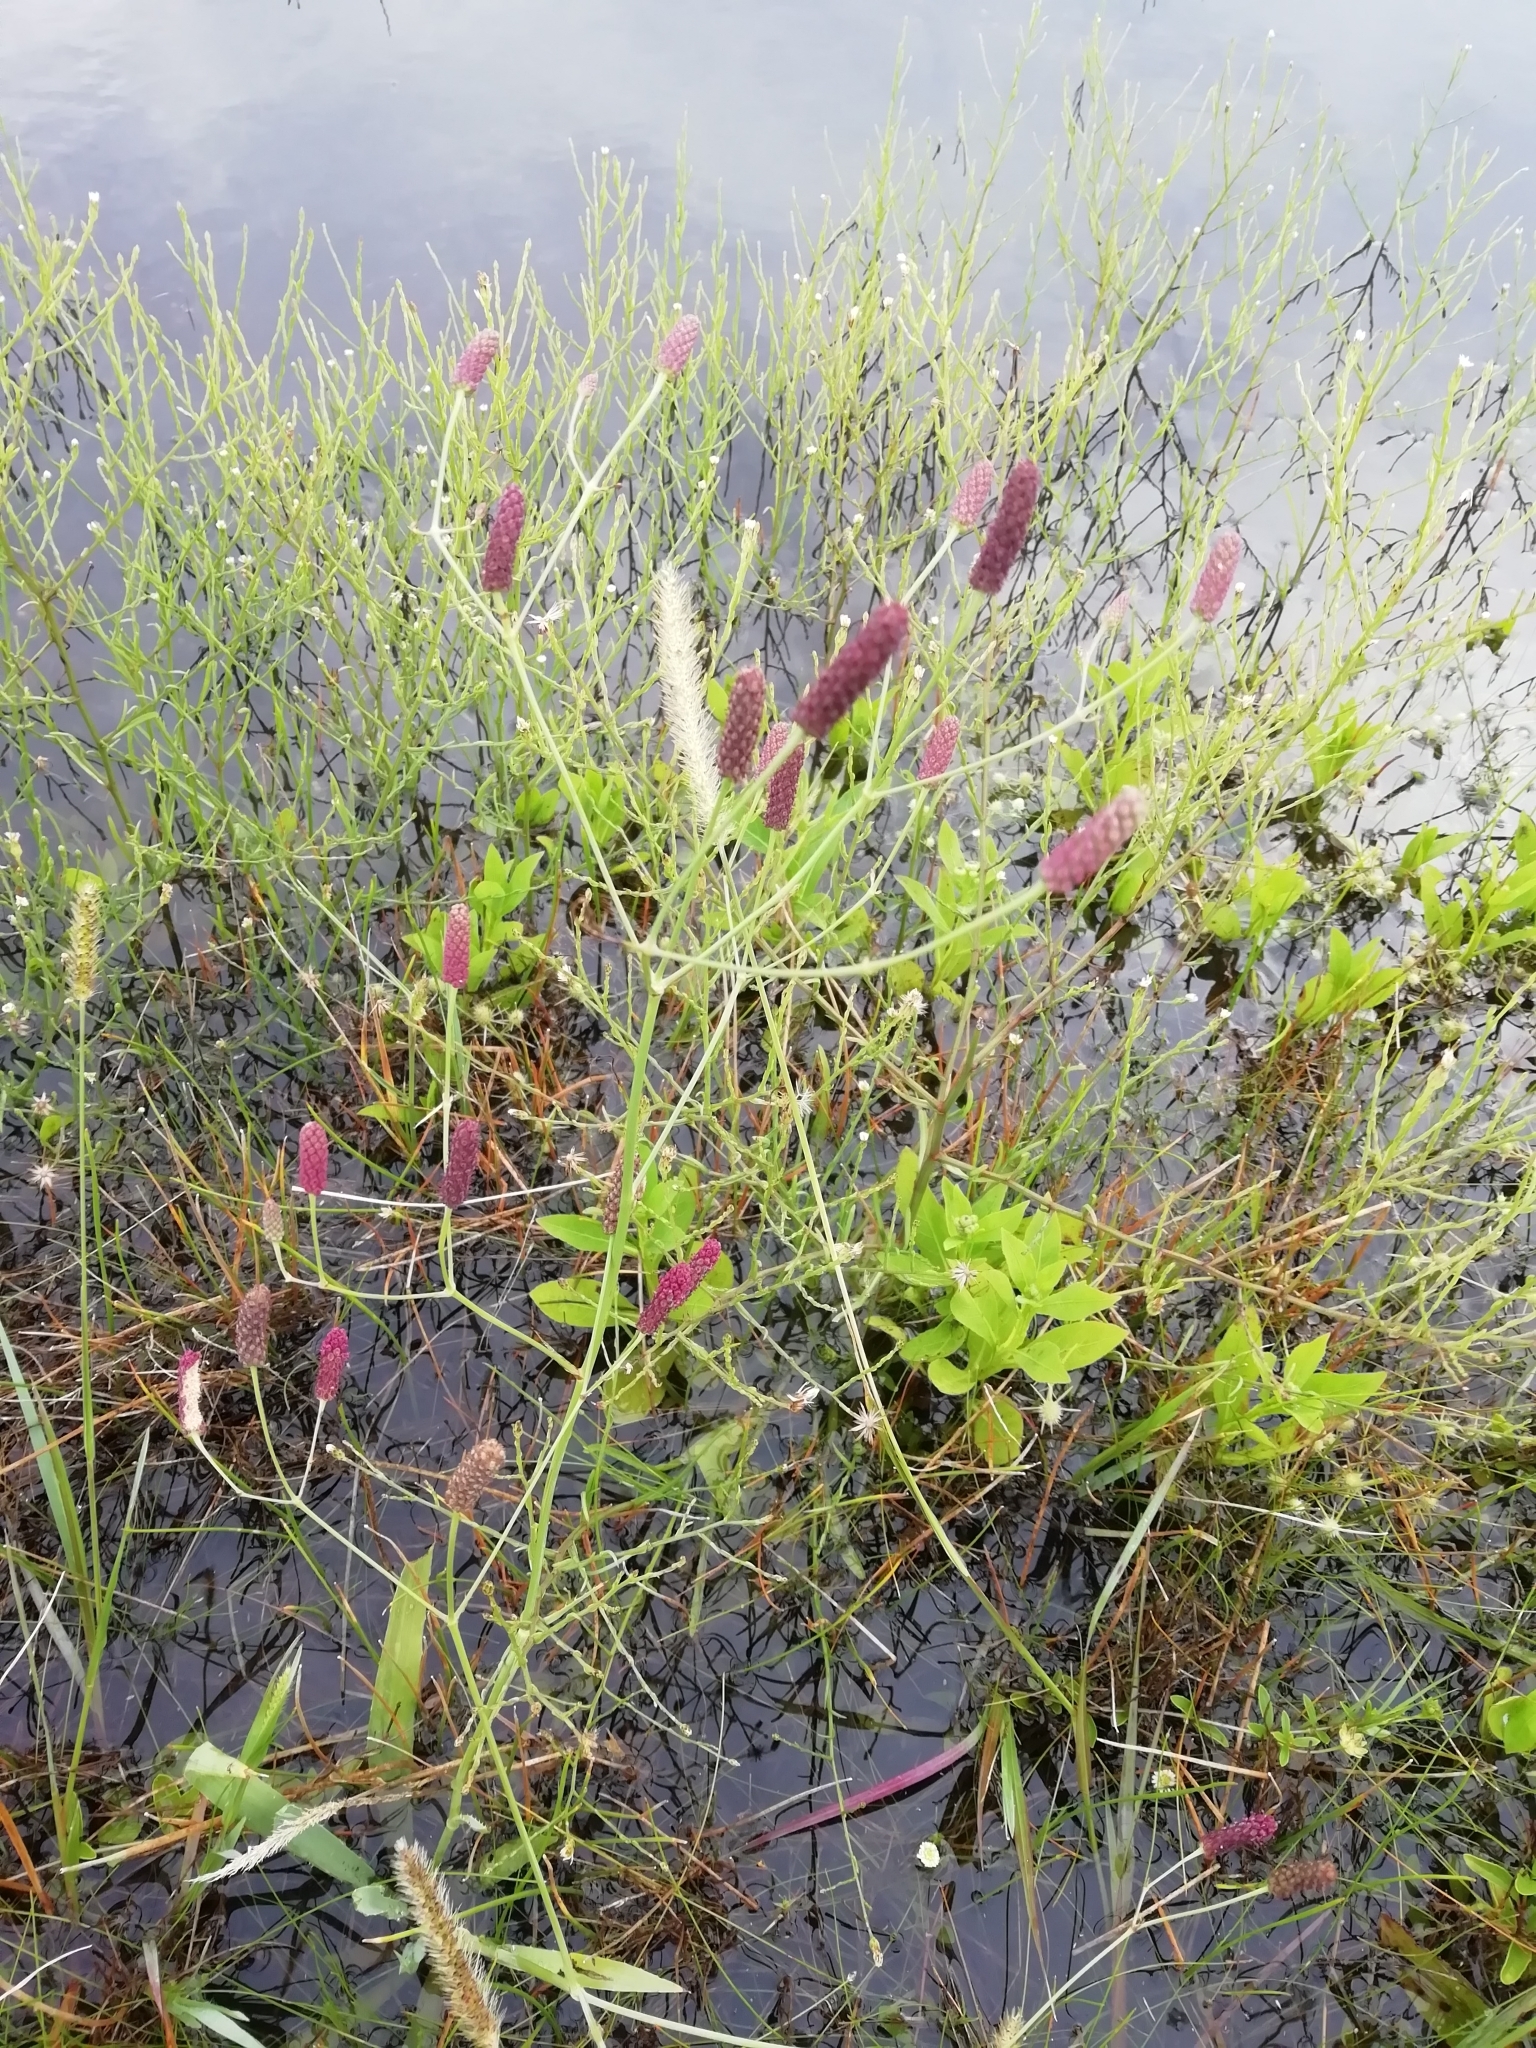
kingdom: Plantae
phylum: Tracheophyta
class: Magnoliopsida
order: Apiales
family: Apiaceae
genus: Eryngium
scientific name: Eryngium ebracteatum
